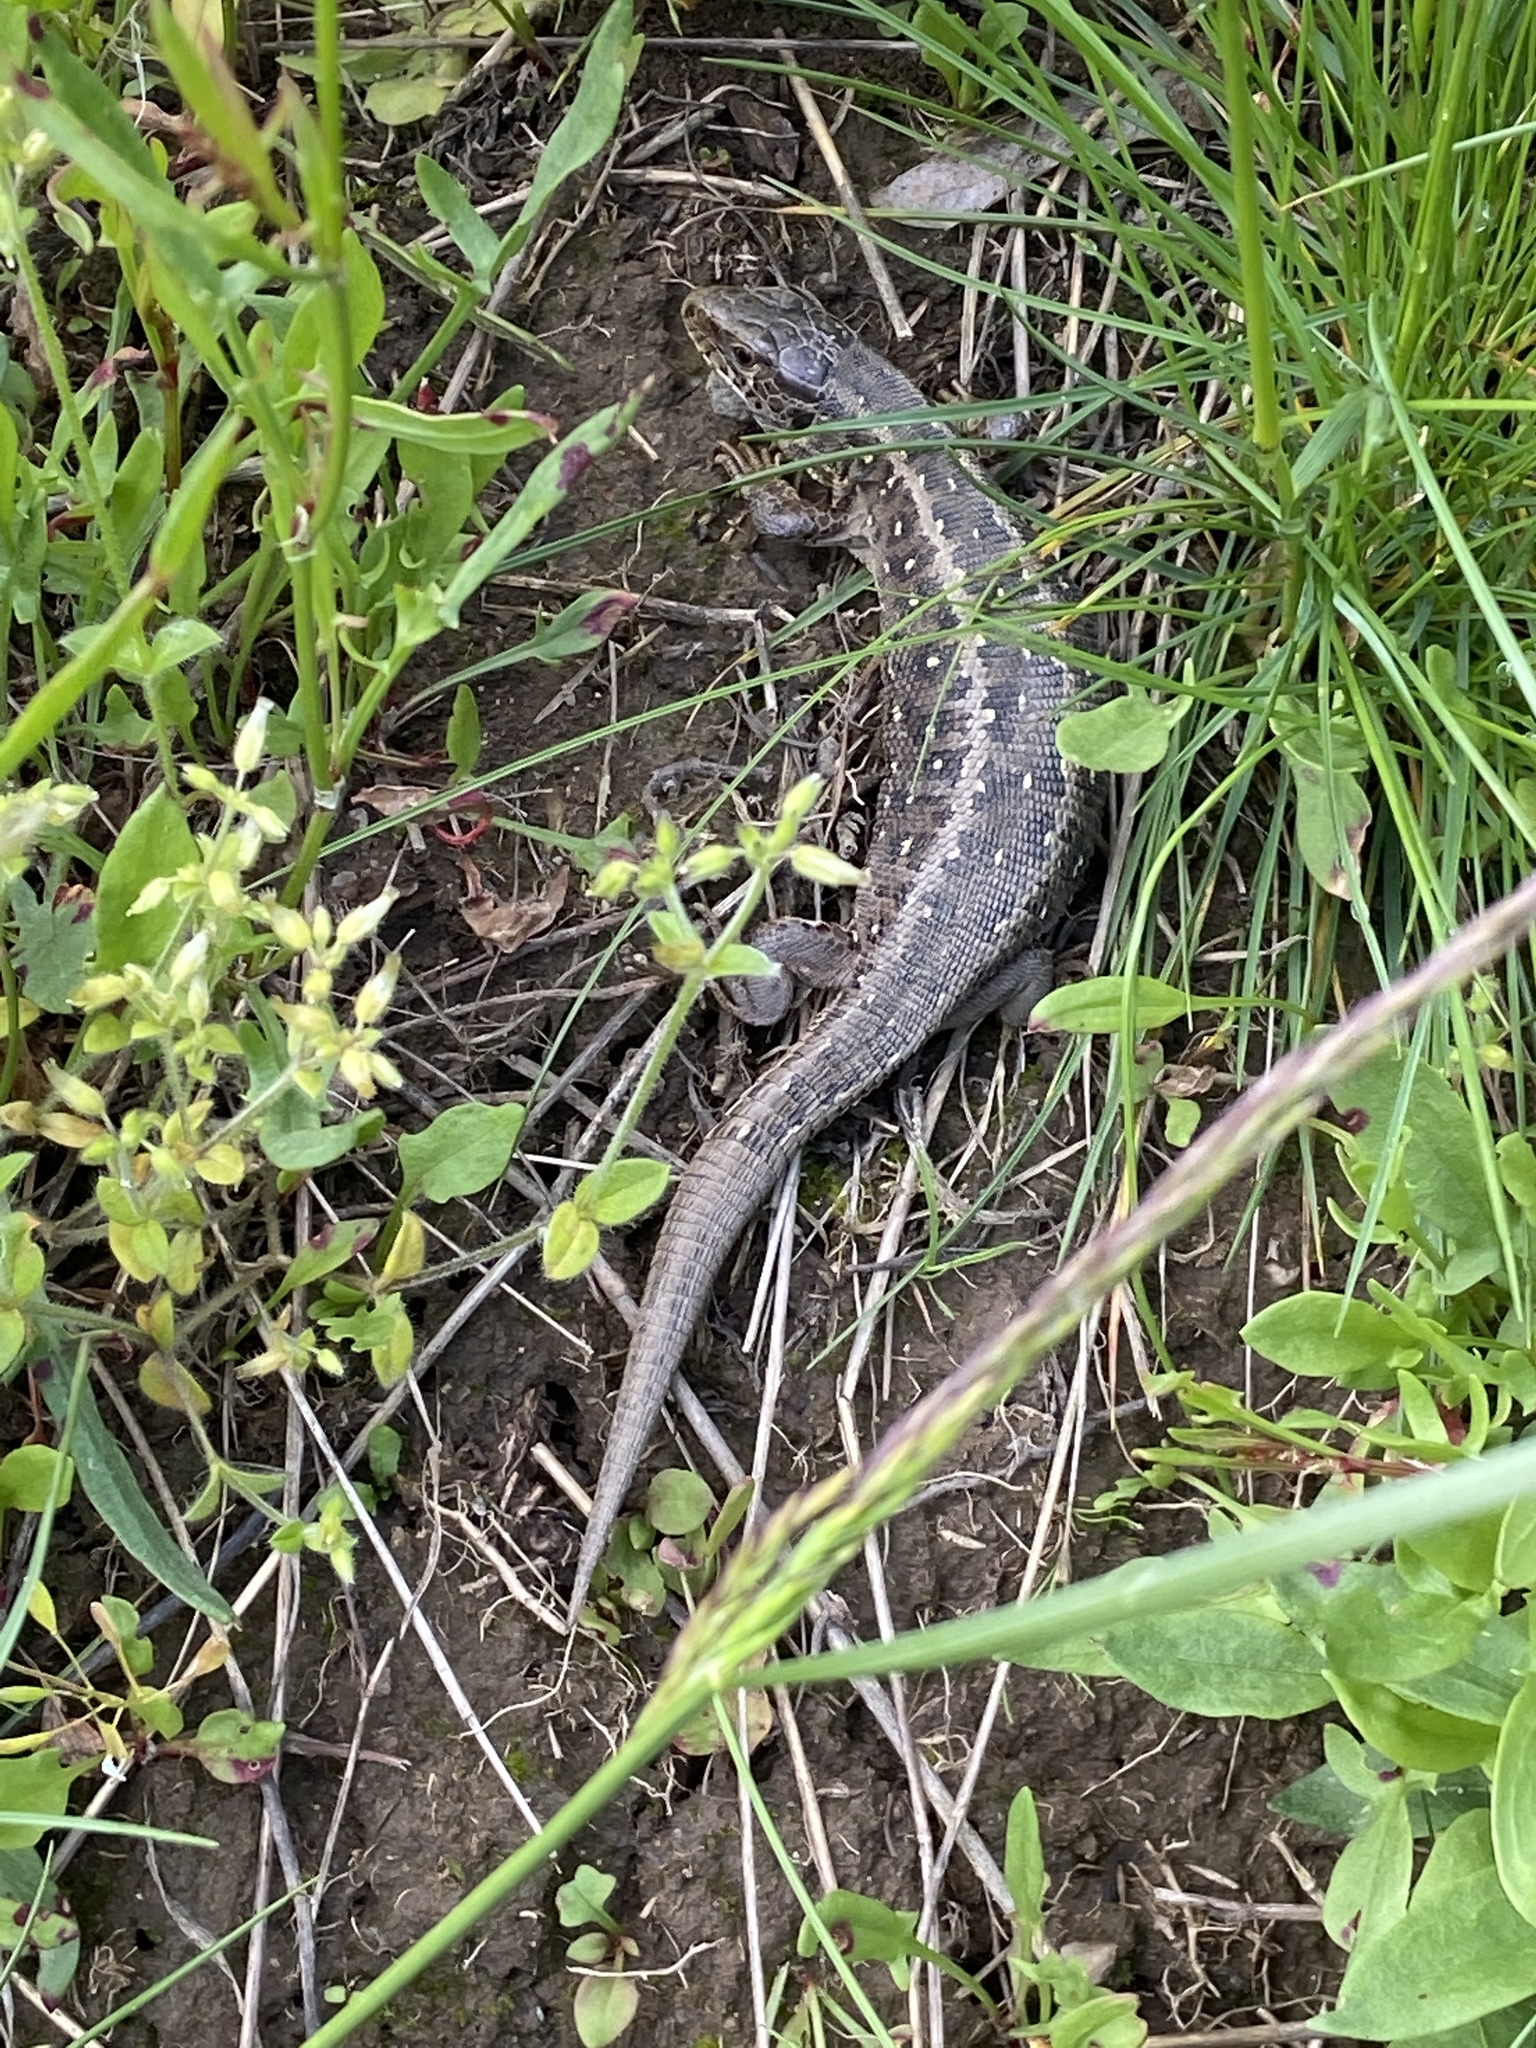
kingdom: Animalia
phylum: Chordata
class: Squamata
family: Lacertidae
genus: Lacerta
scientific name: Lacerta agilis
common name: Sand lizard
